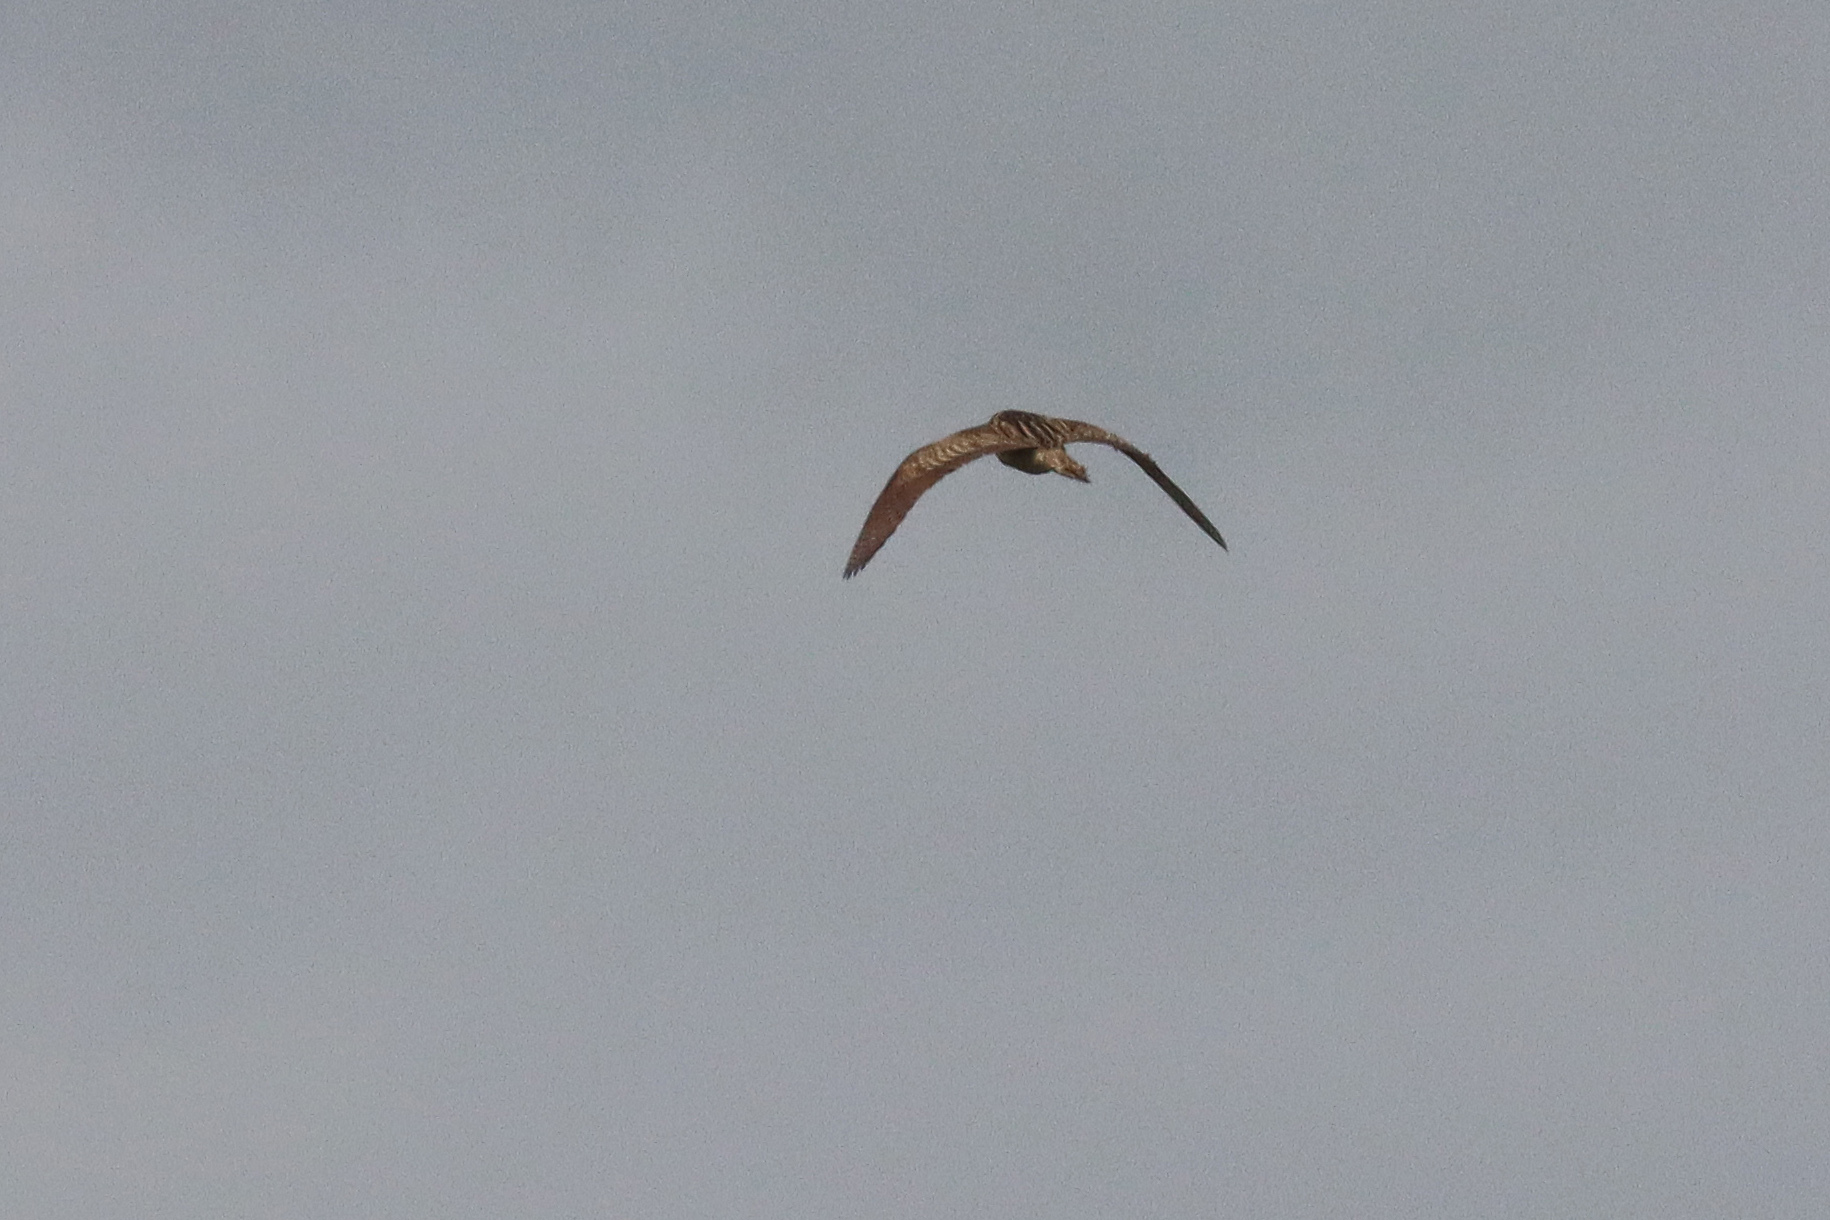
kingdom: Animalia
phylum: Chordata
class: Aves
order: Pelecaniformes
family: Ardeidae
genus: Botaurus
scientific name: Botaurus stellaris
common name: Eurasian bittern
